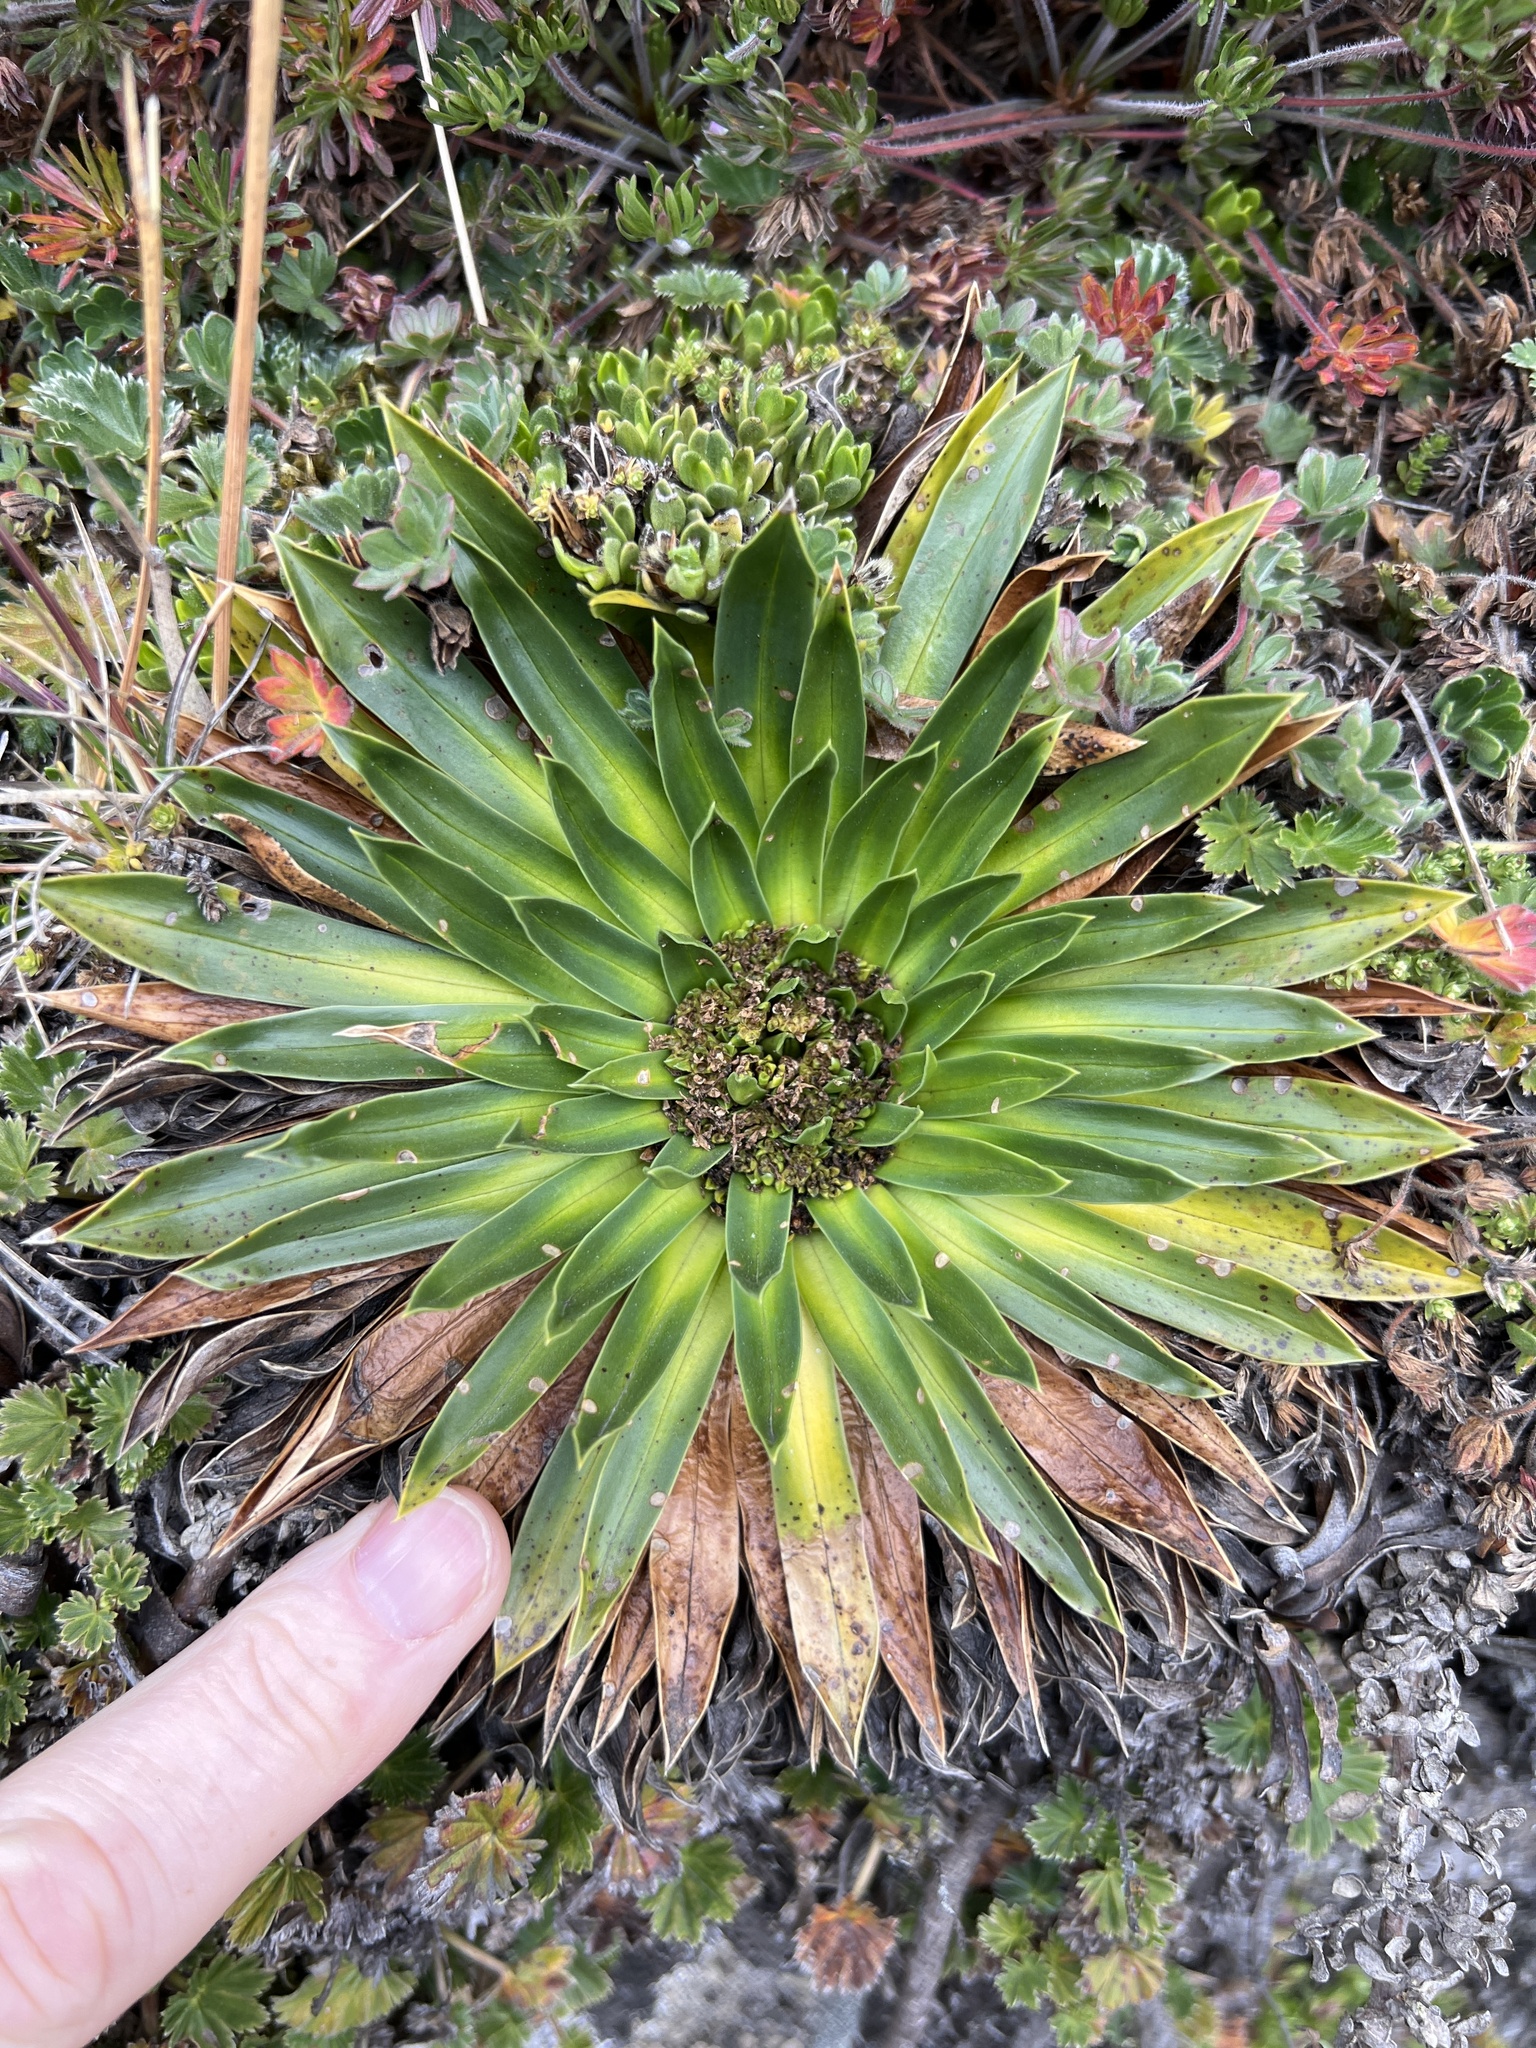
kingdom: Plantae
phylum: Tracheophyta
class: Magnoliopsida
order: Dipsacales
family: Caprifoliaceae
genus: Valeriana
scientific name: Valeriana rigida
